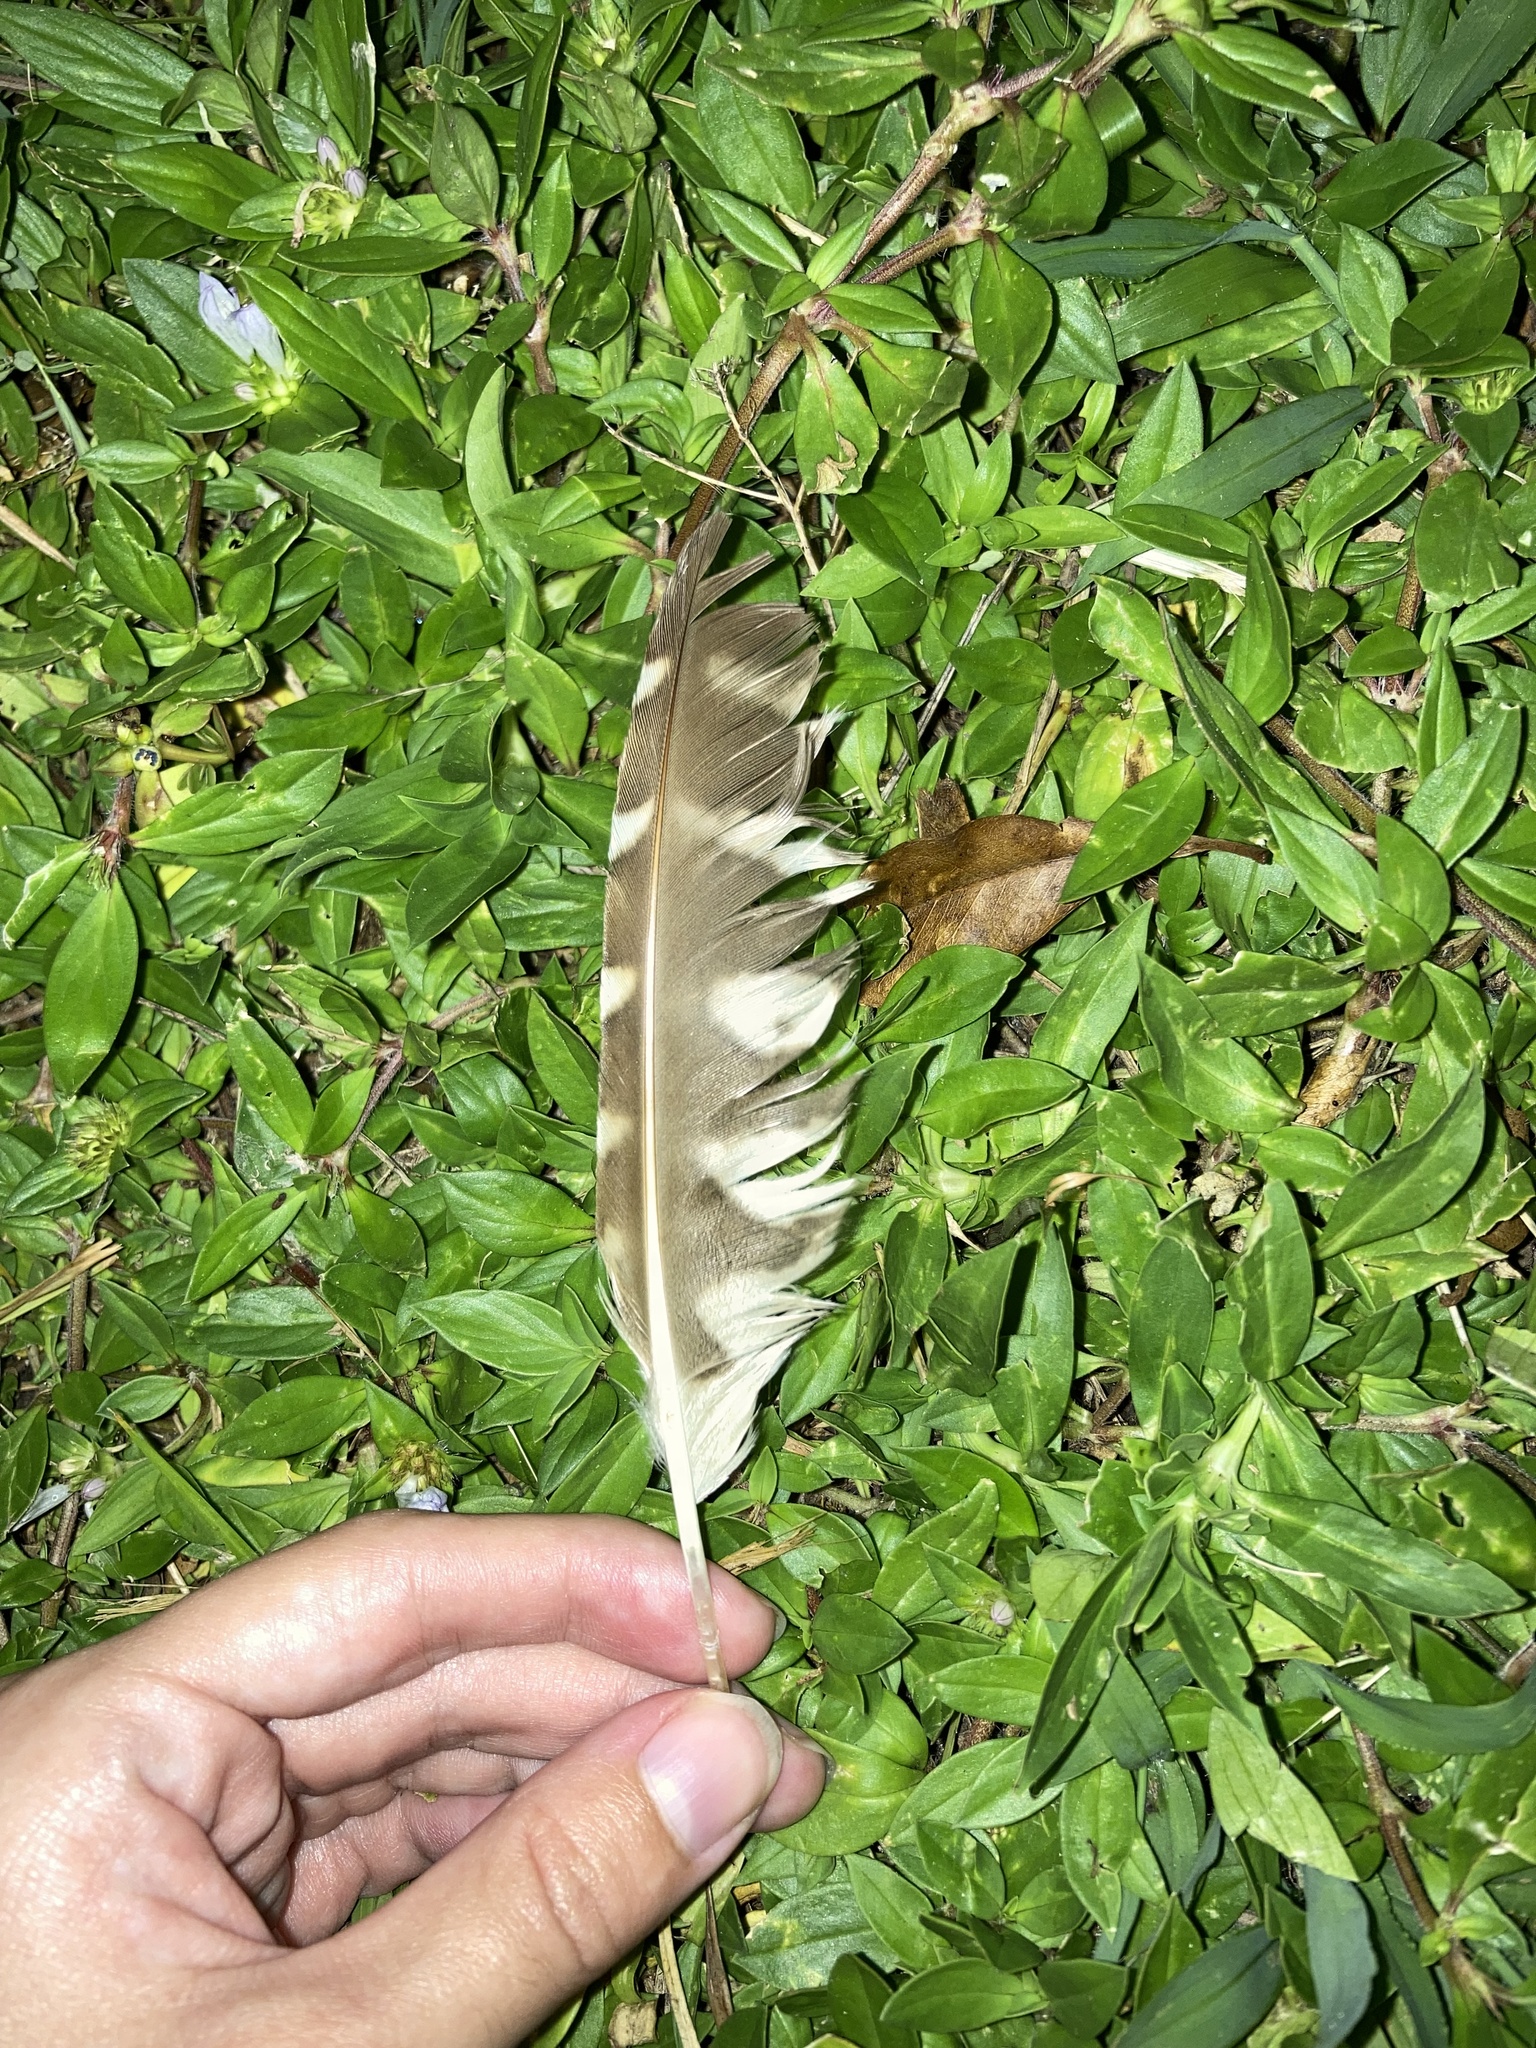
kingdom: Animalia
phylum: Chordata
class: Aves
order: Strigiformes
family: Strigidae
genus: Athene
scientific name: Athene cunicularia
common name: Burrowing owl
